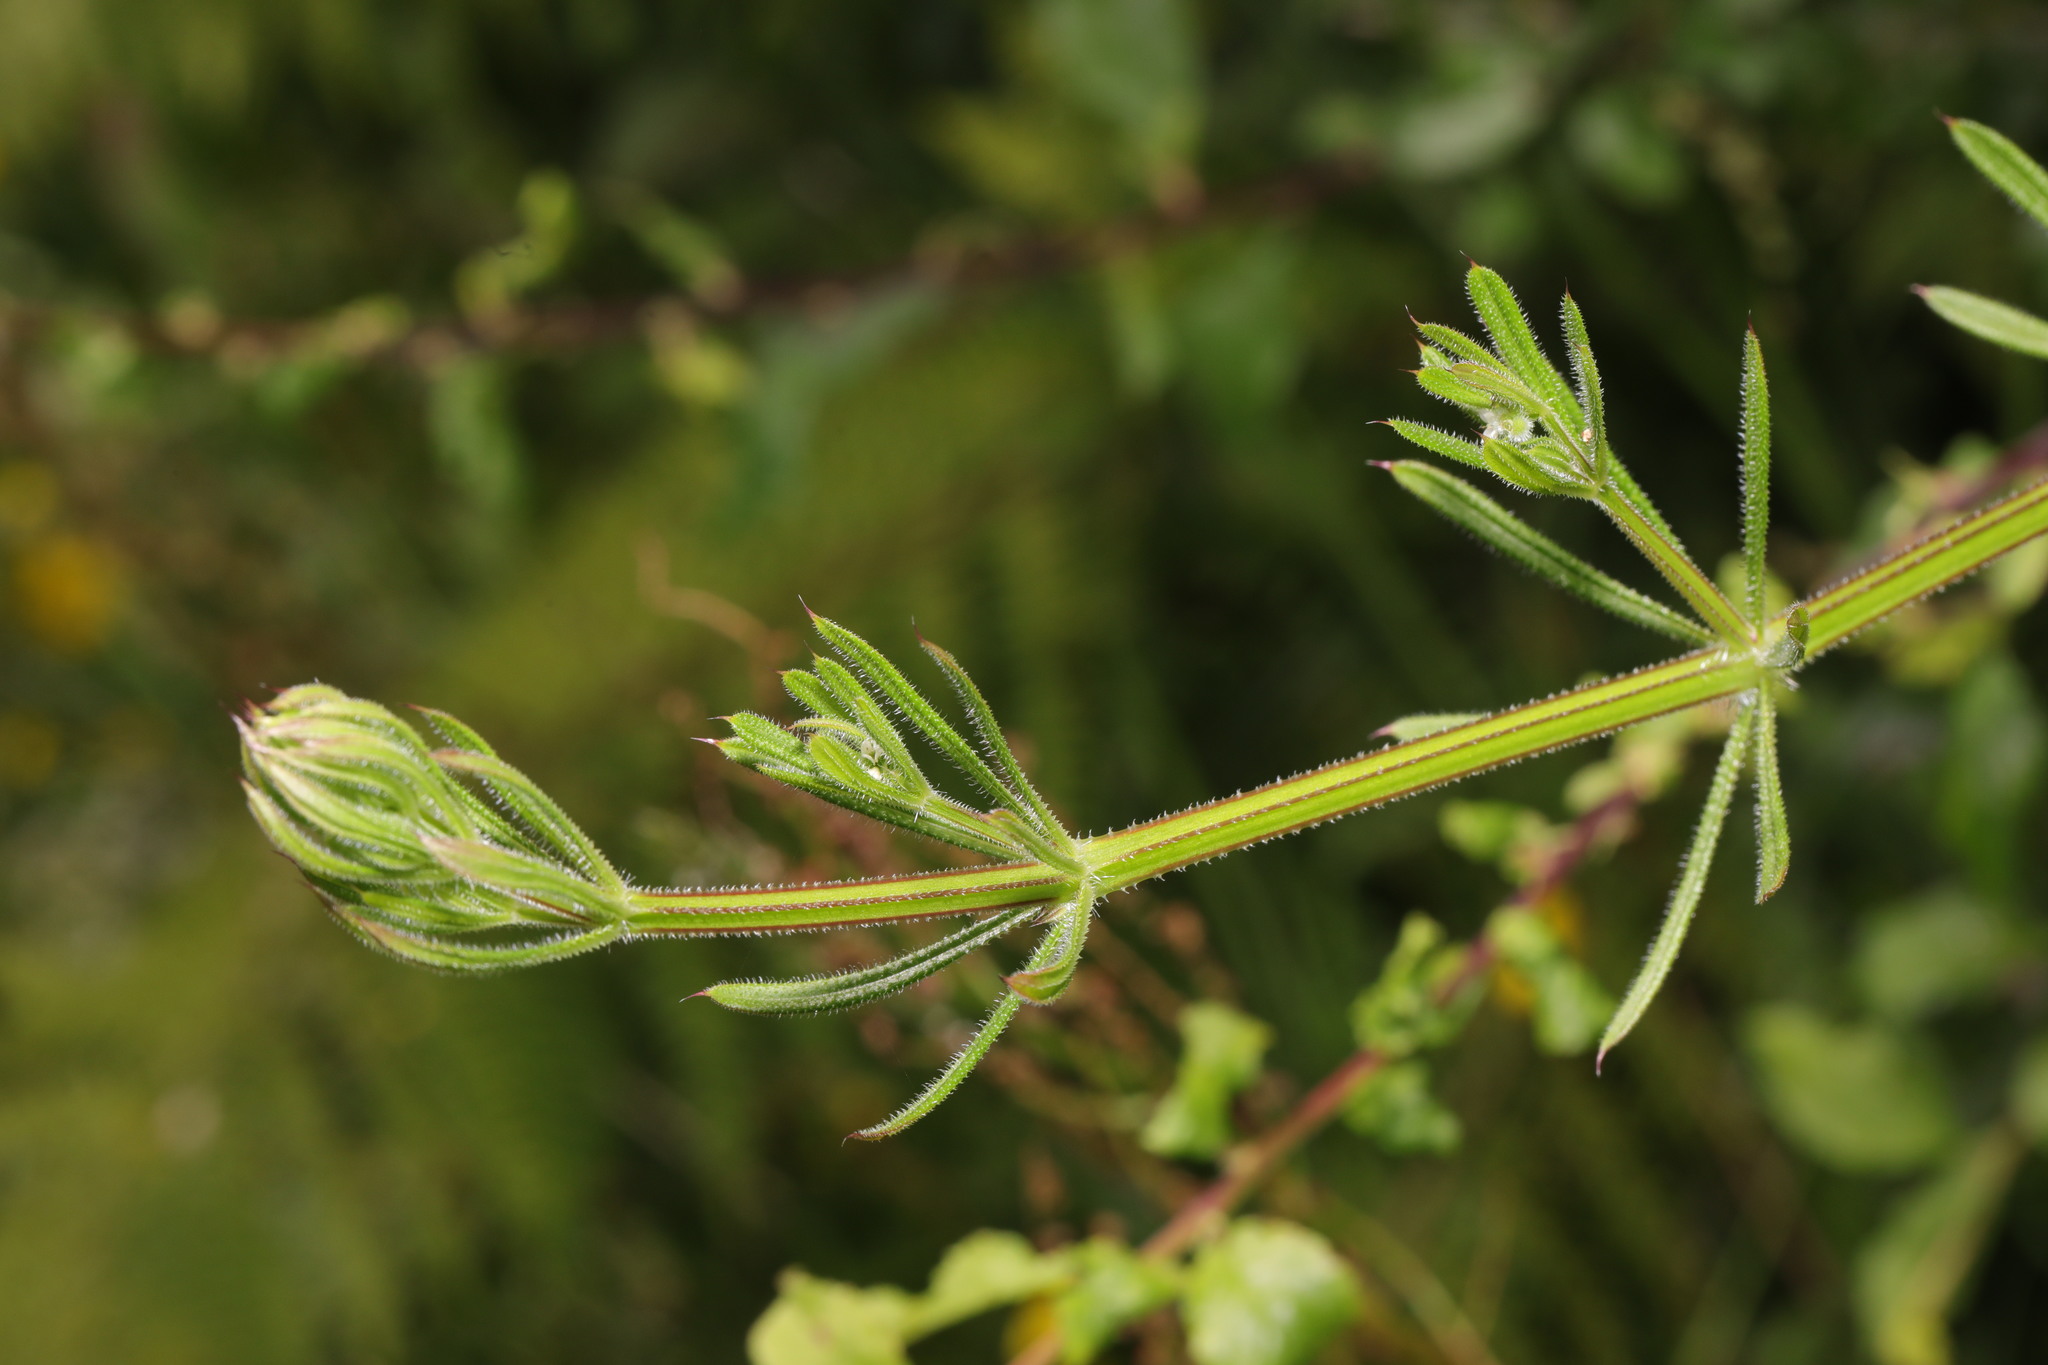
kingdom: Plantae
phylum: Tracheophyta
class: Magnoliopsida
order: Gentianales
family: Rubiaceae
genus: Galium
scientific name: Galium aparine
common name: Cleavers
